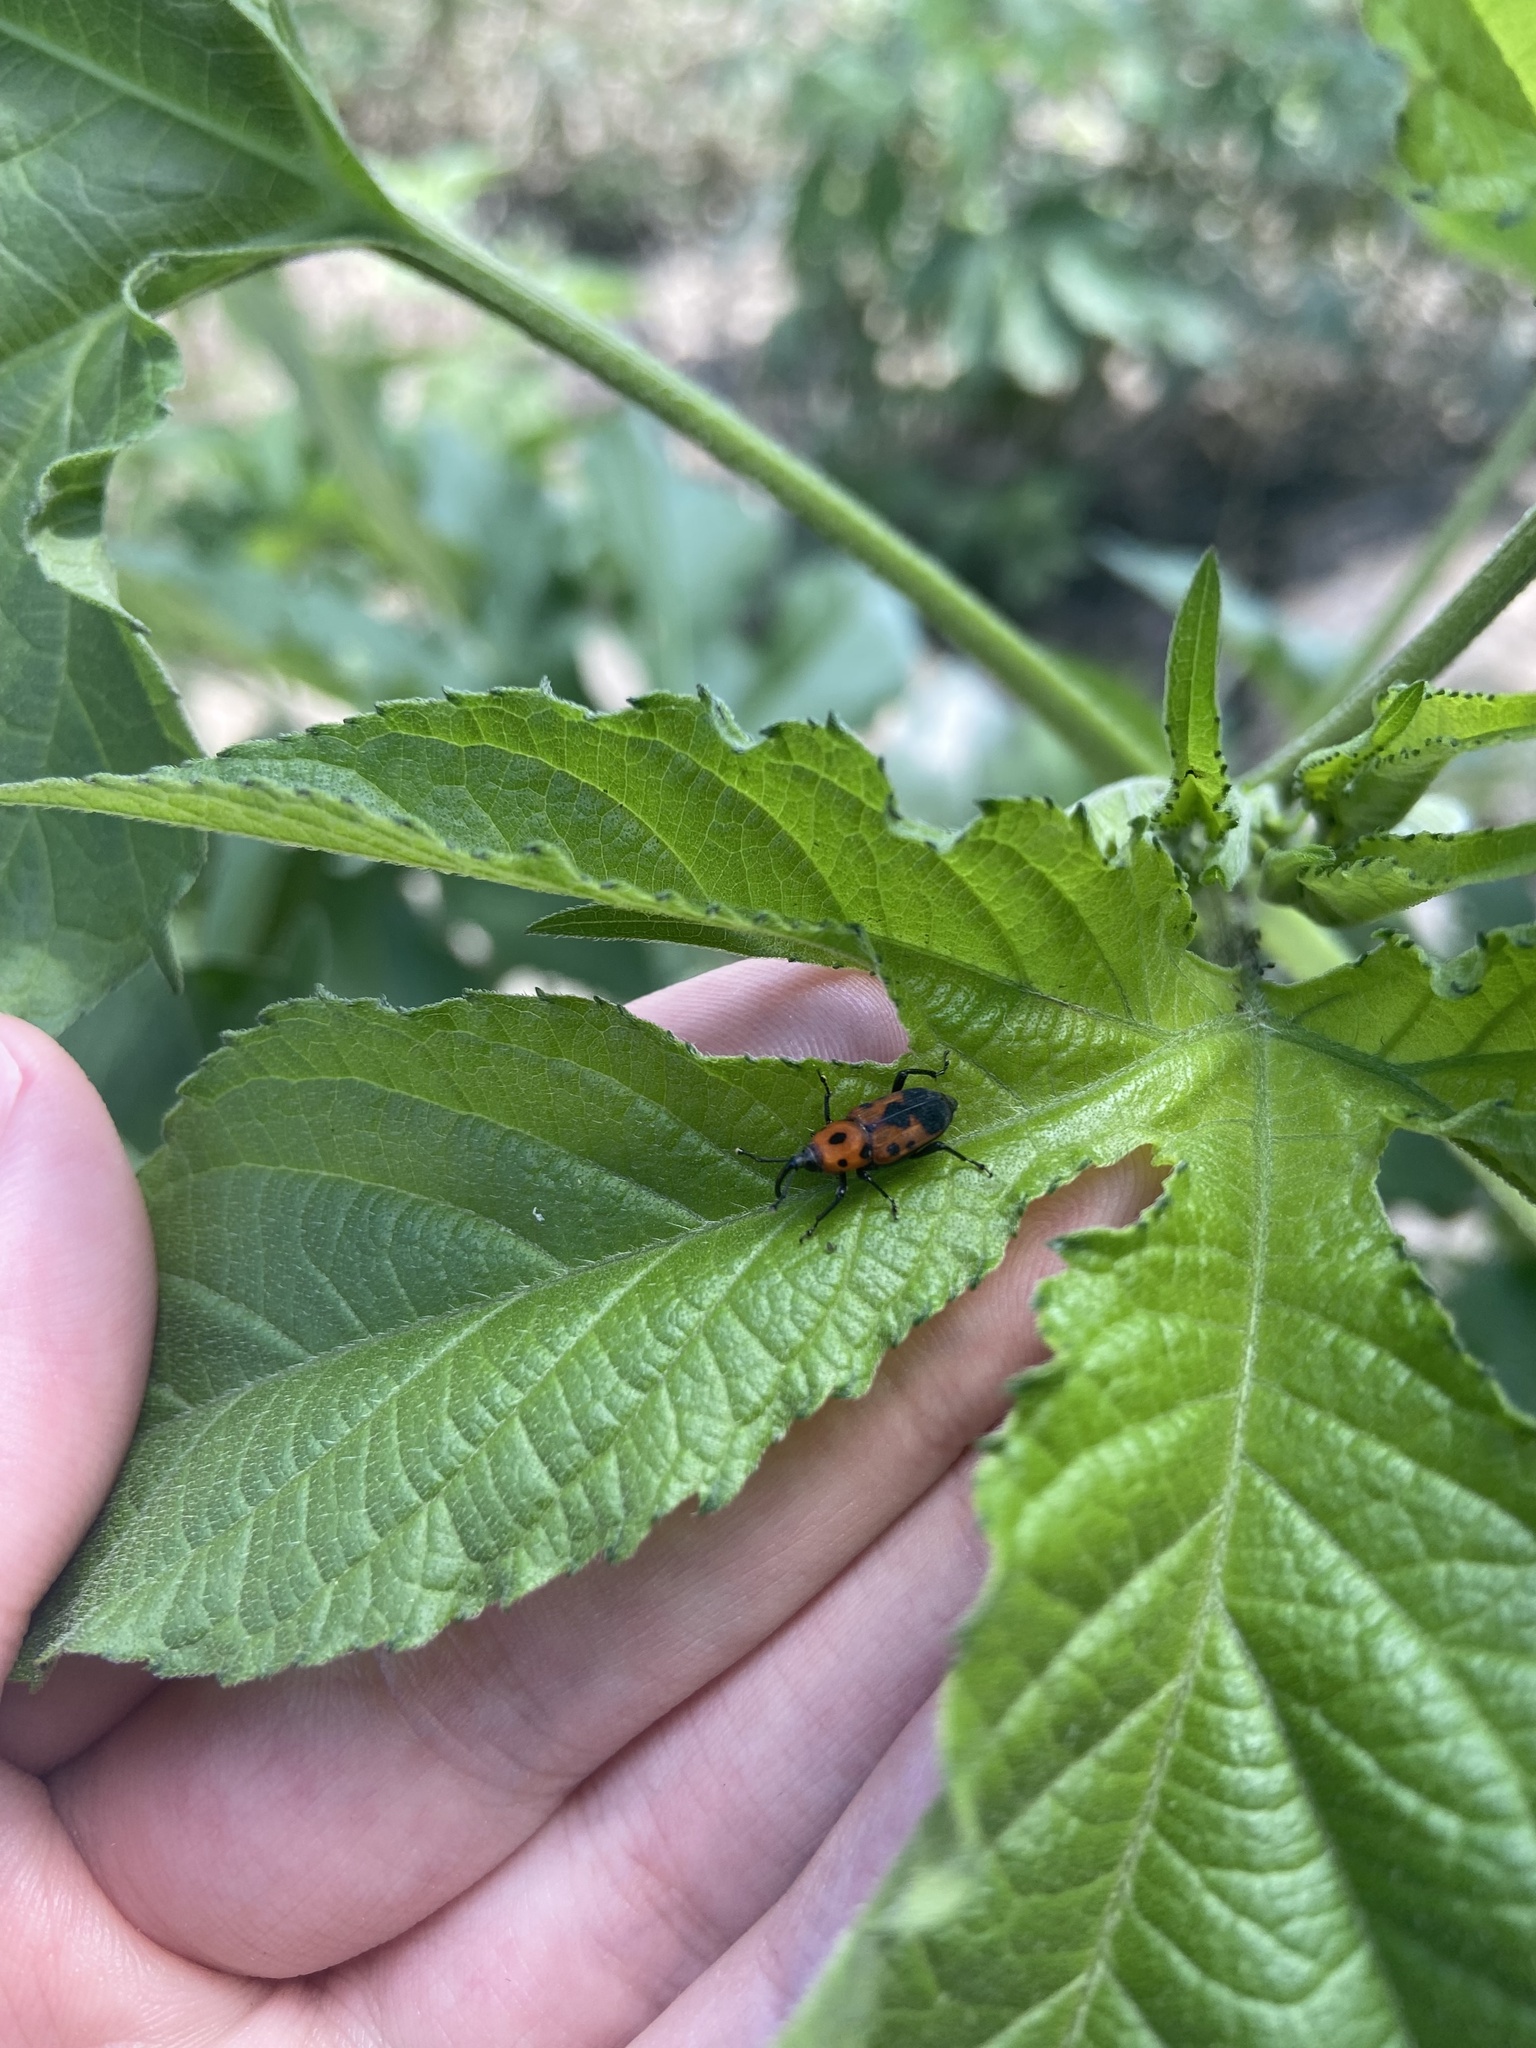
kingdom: Animalia
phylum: Arthropoda
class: Insecta
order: Coleoptera
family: Dryophthoridae
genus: Rhodobaenus
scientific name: Rhodobaenus quinquepunctatus
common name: Cocklebur weevil
